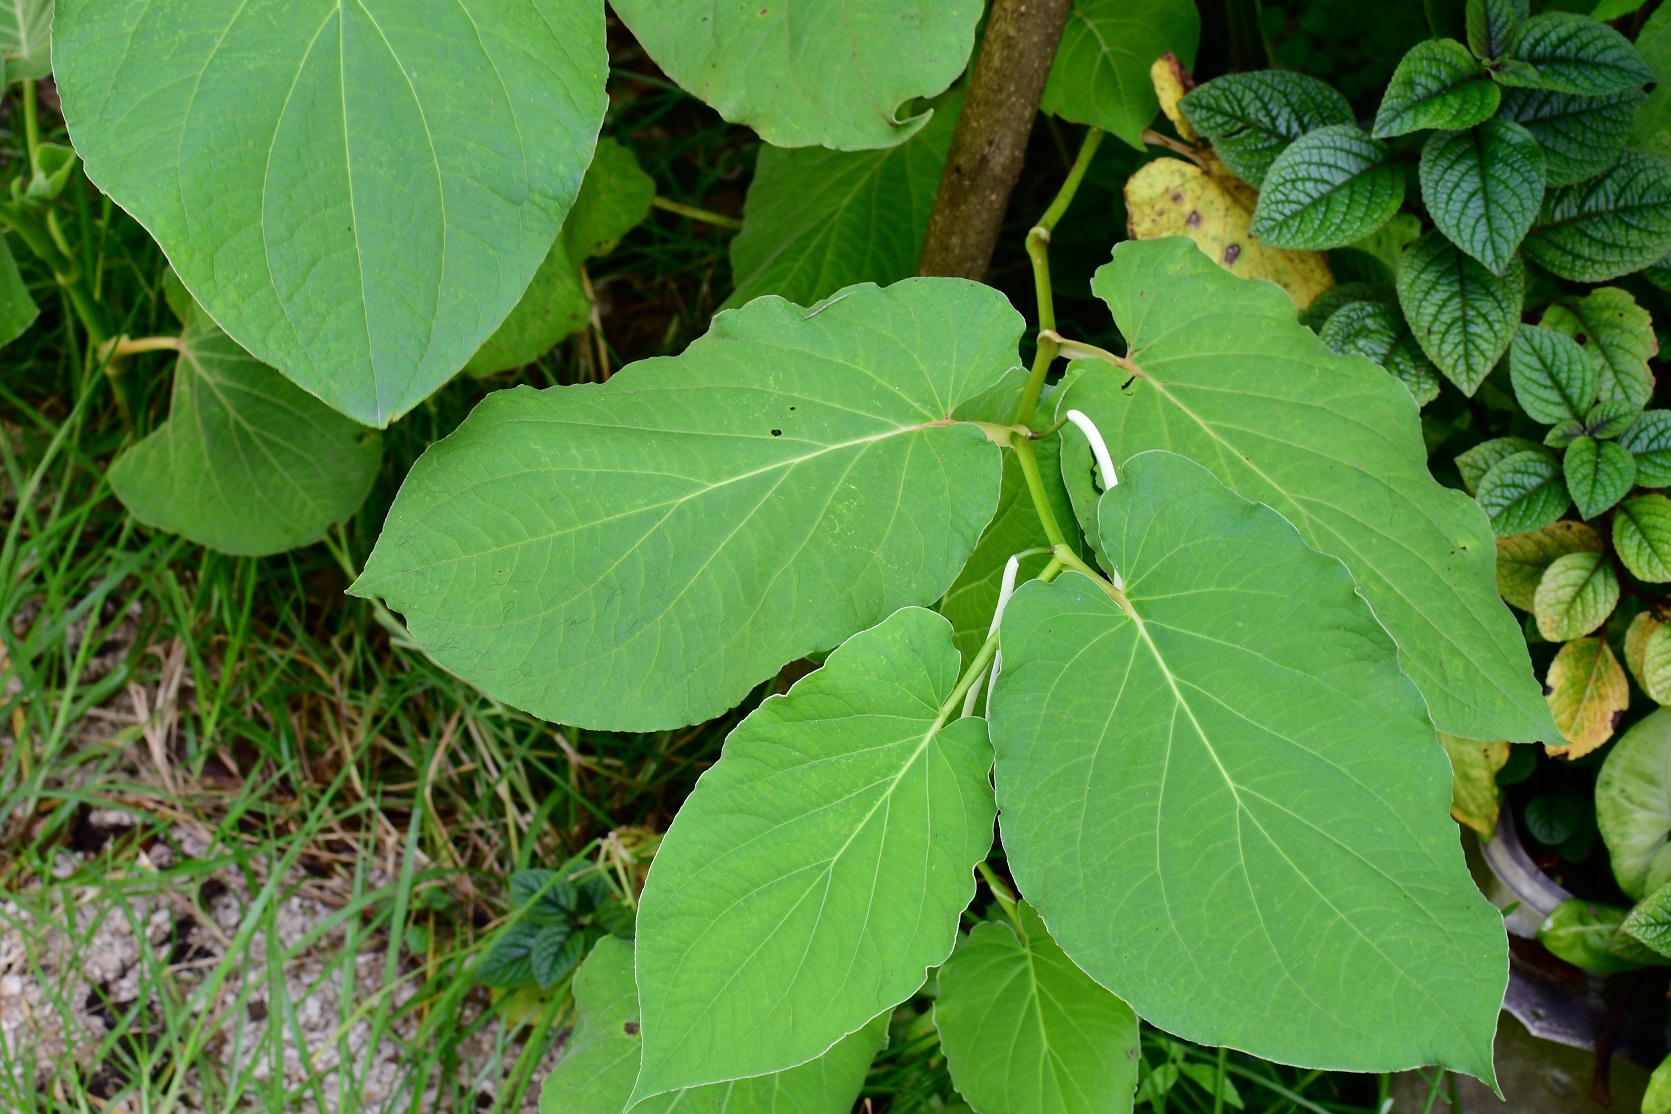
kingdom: Plantae
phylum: Tracheophyta
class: Magnoliopsida
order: Piperales
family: Piperaceae
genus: Piper
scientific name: Piper auritum
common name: Vera cruz pepper
